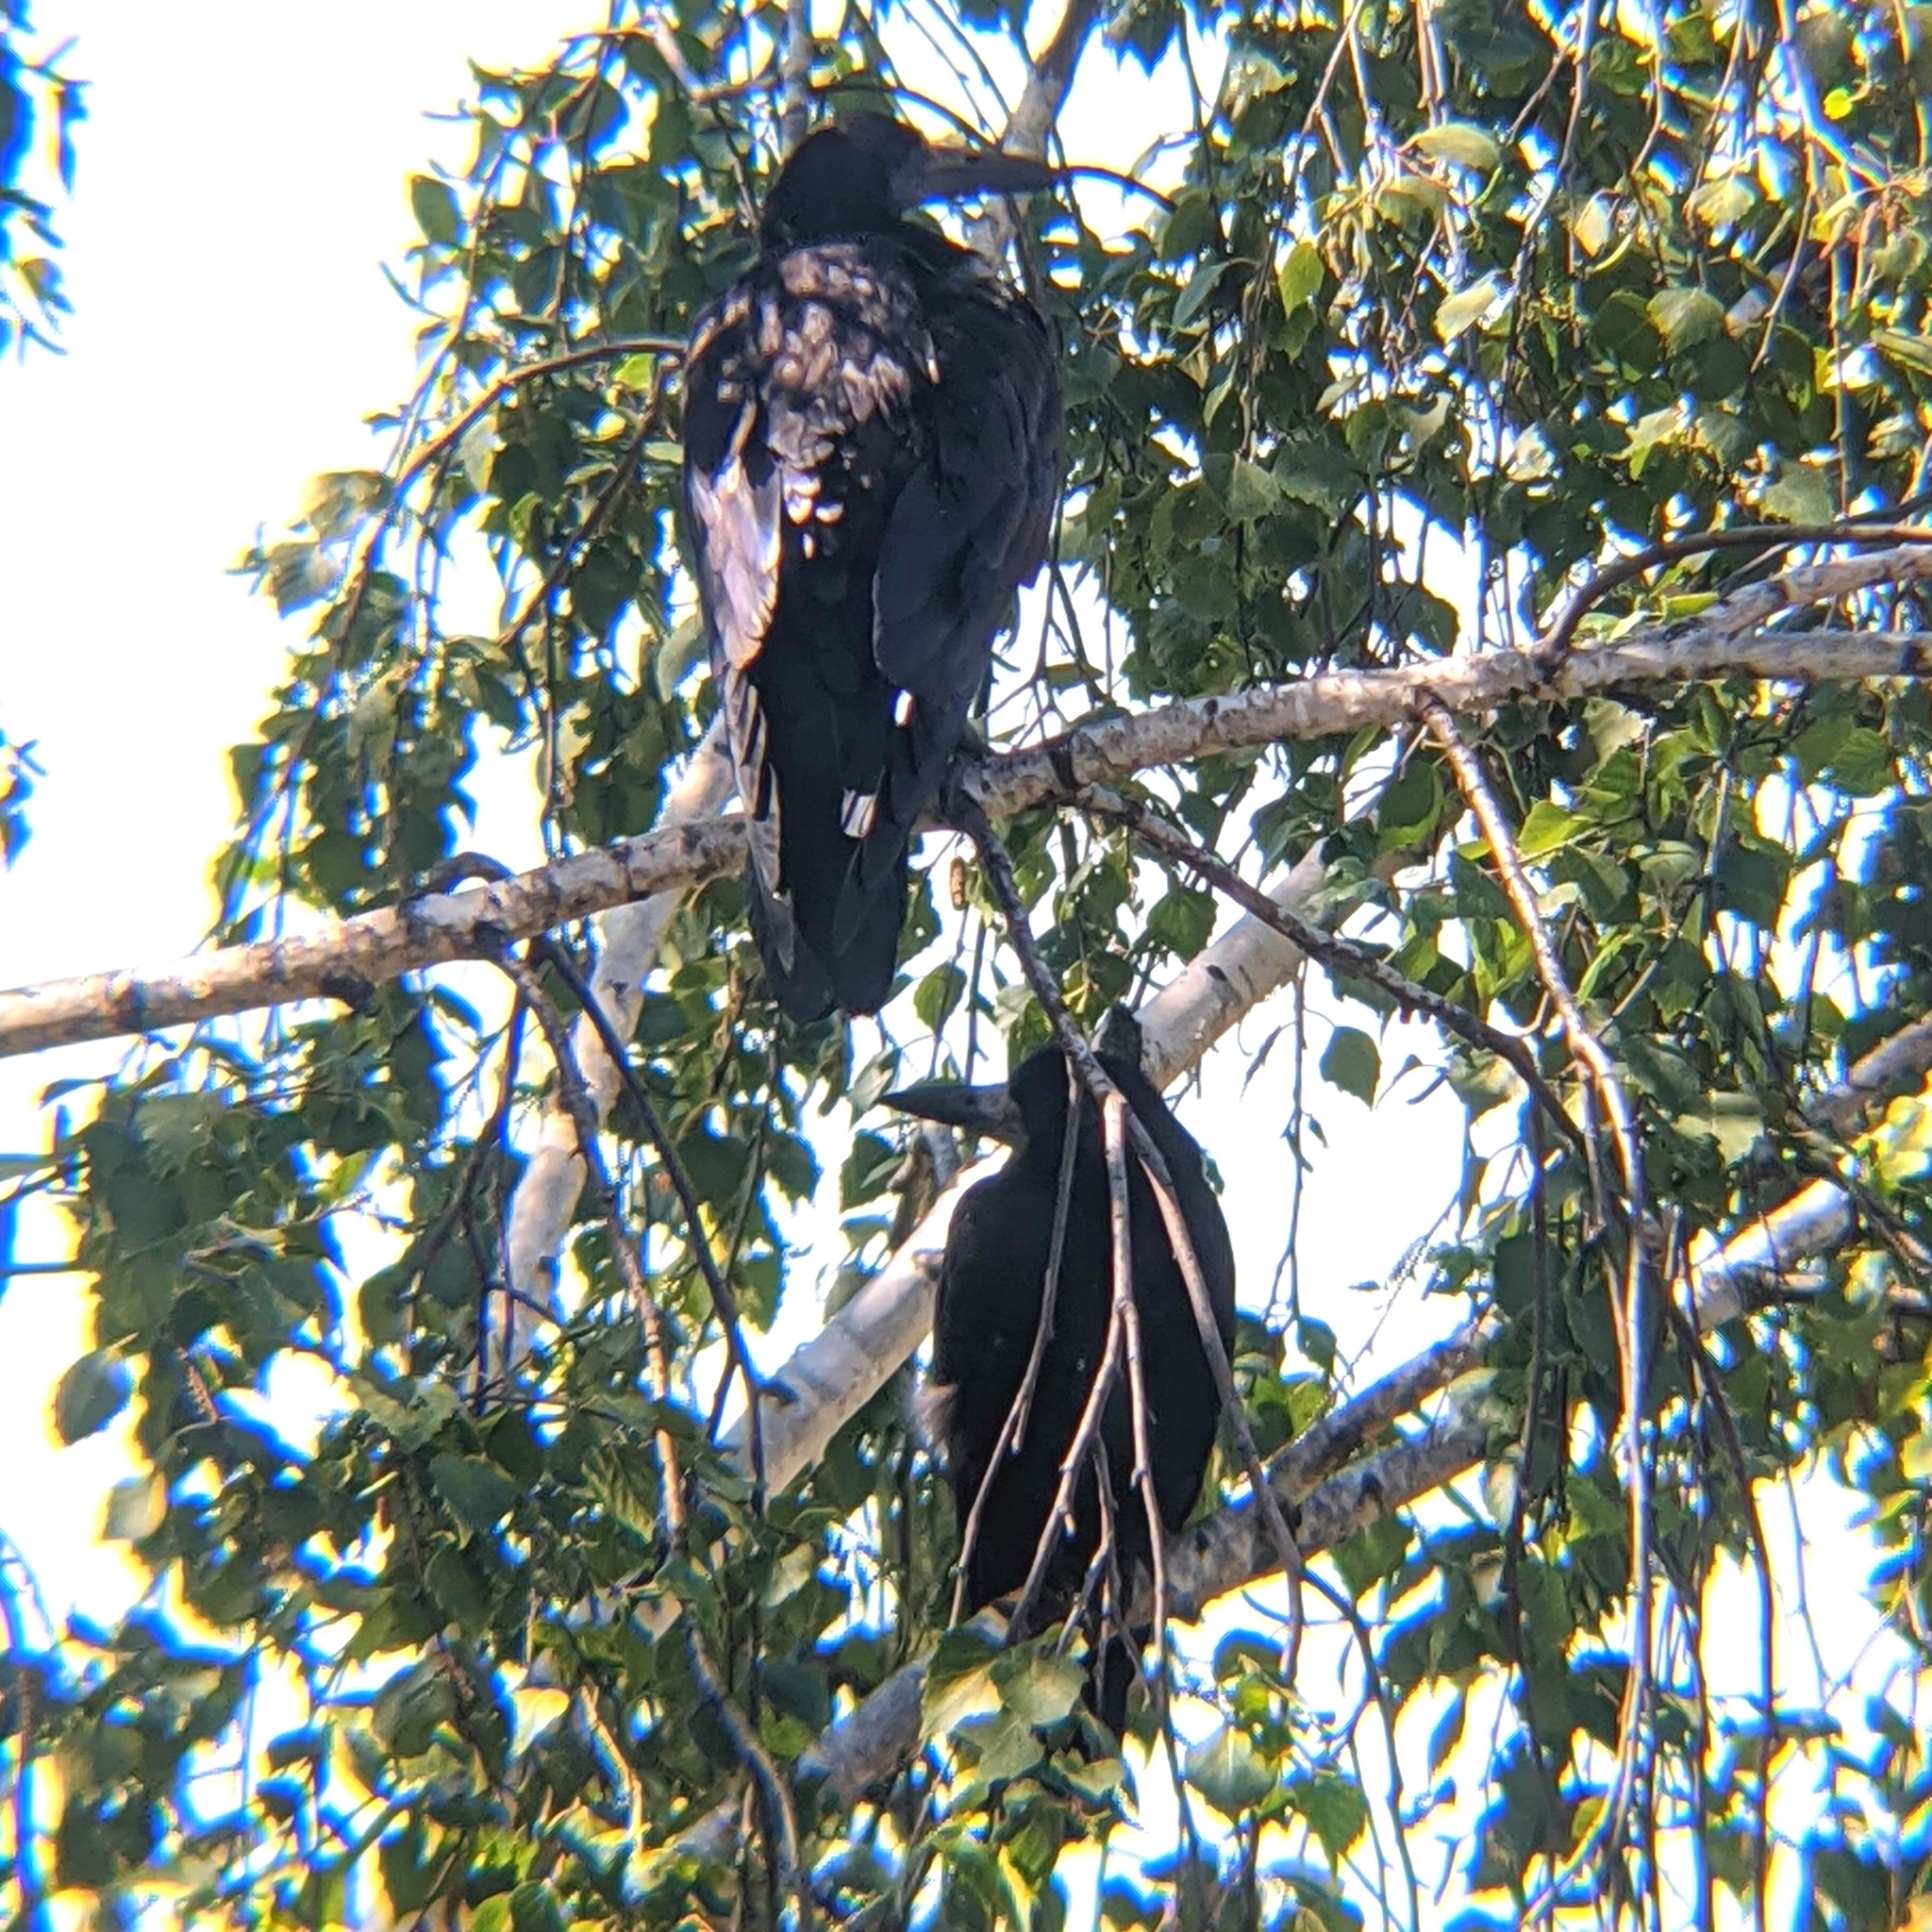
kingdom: Animalia
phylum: Chordata
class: Aves
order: Passeriformes
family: Corvidae
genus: Corvus
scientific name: Corvus frugilegus
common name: Rook
